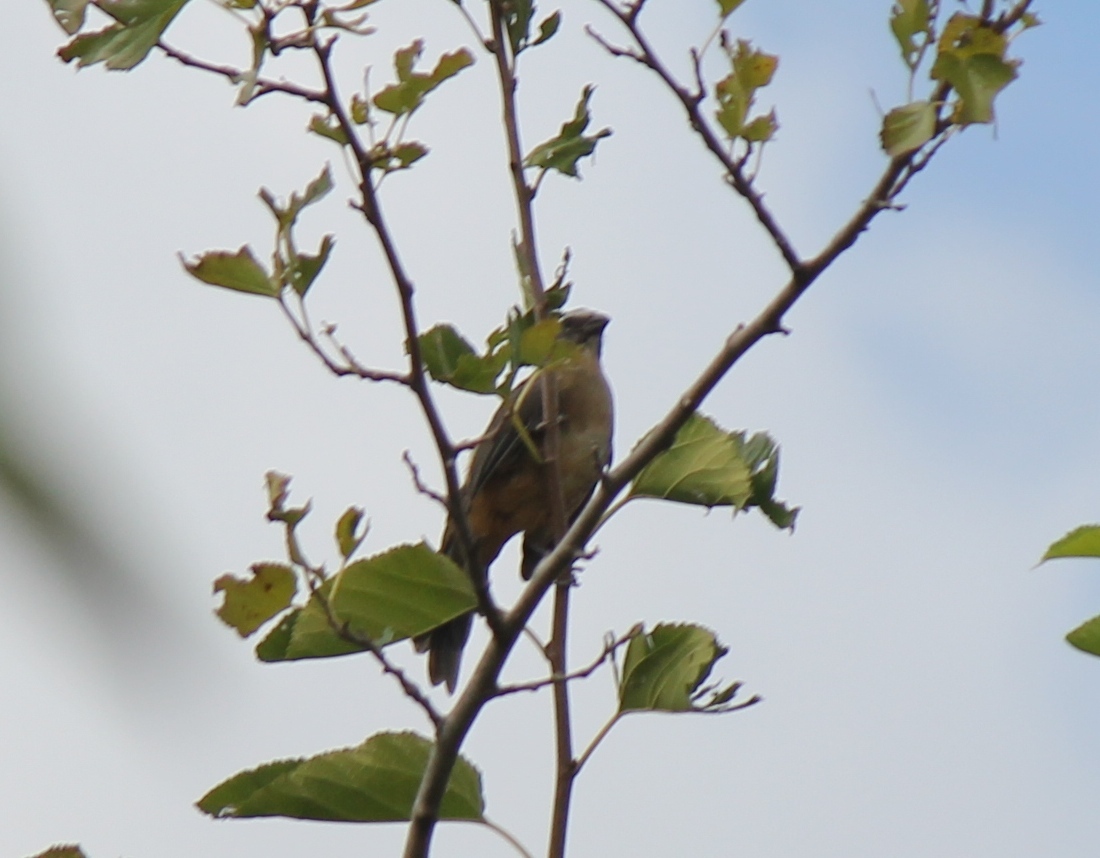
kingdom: Animalia
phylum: Chordata
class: Aves
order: Passeriformes
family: Thraupidae
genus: Saltator
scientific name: Saltator coerulescens
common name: Grayish saltator
